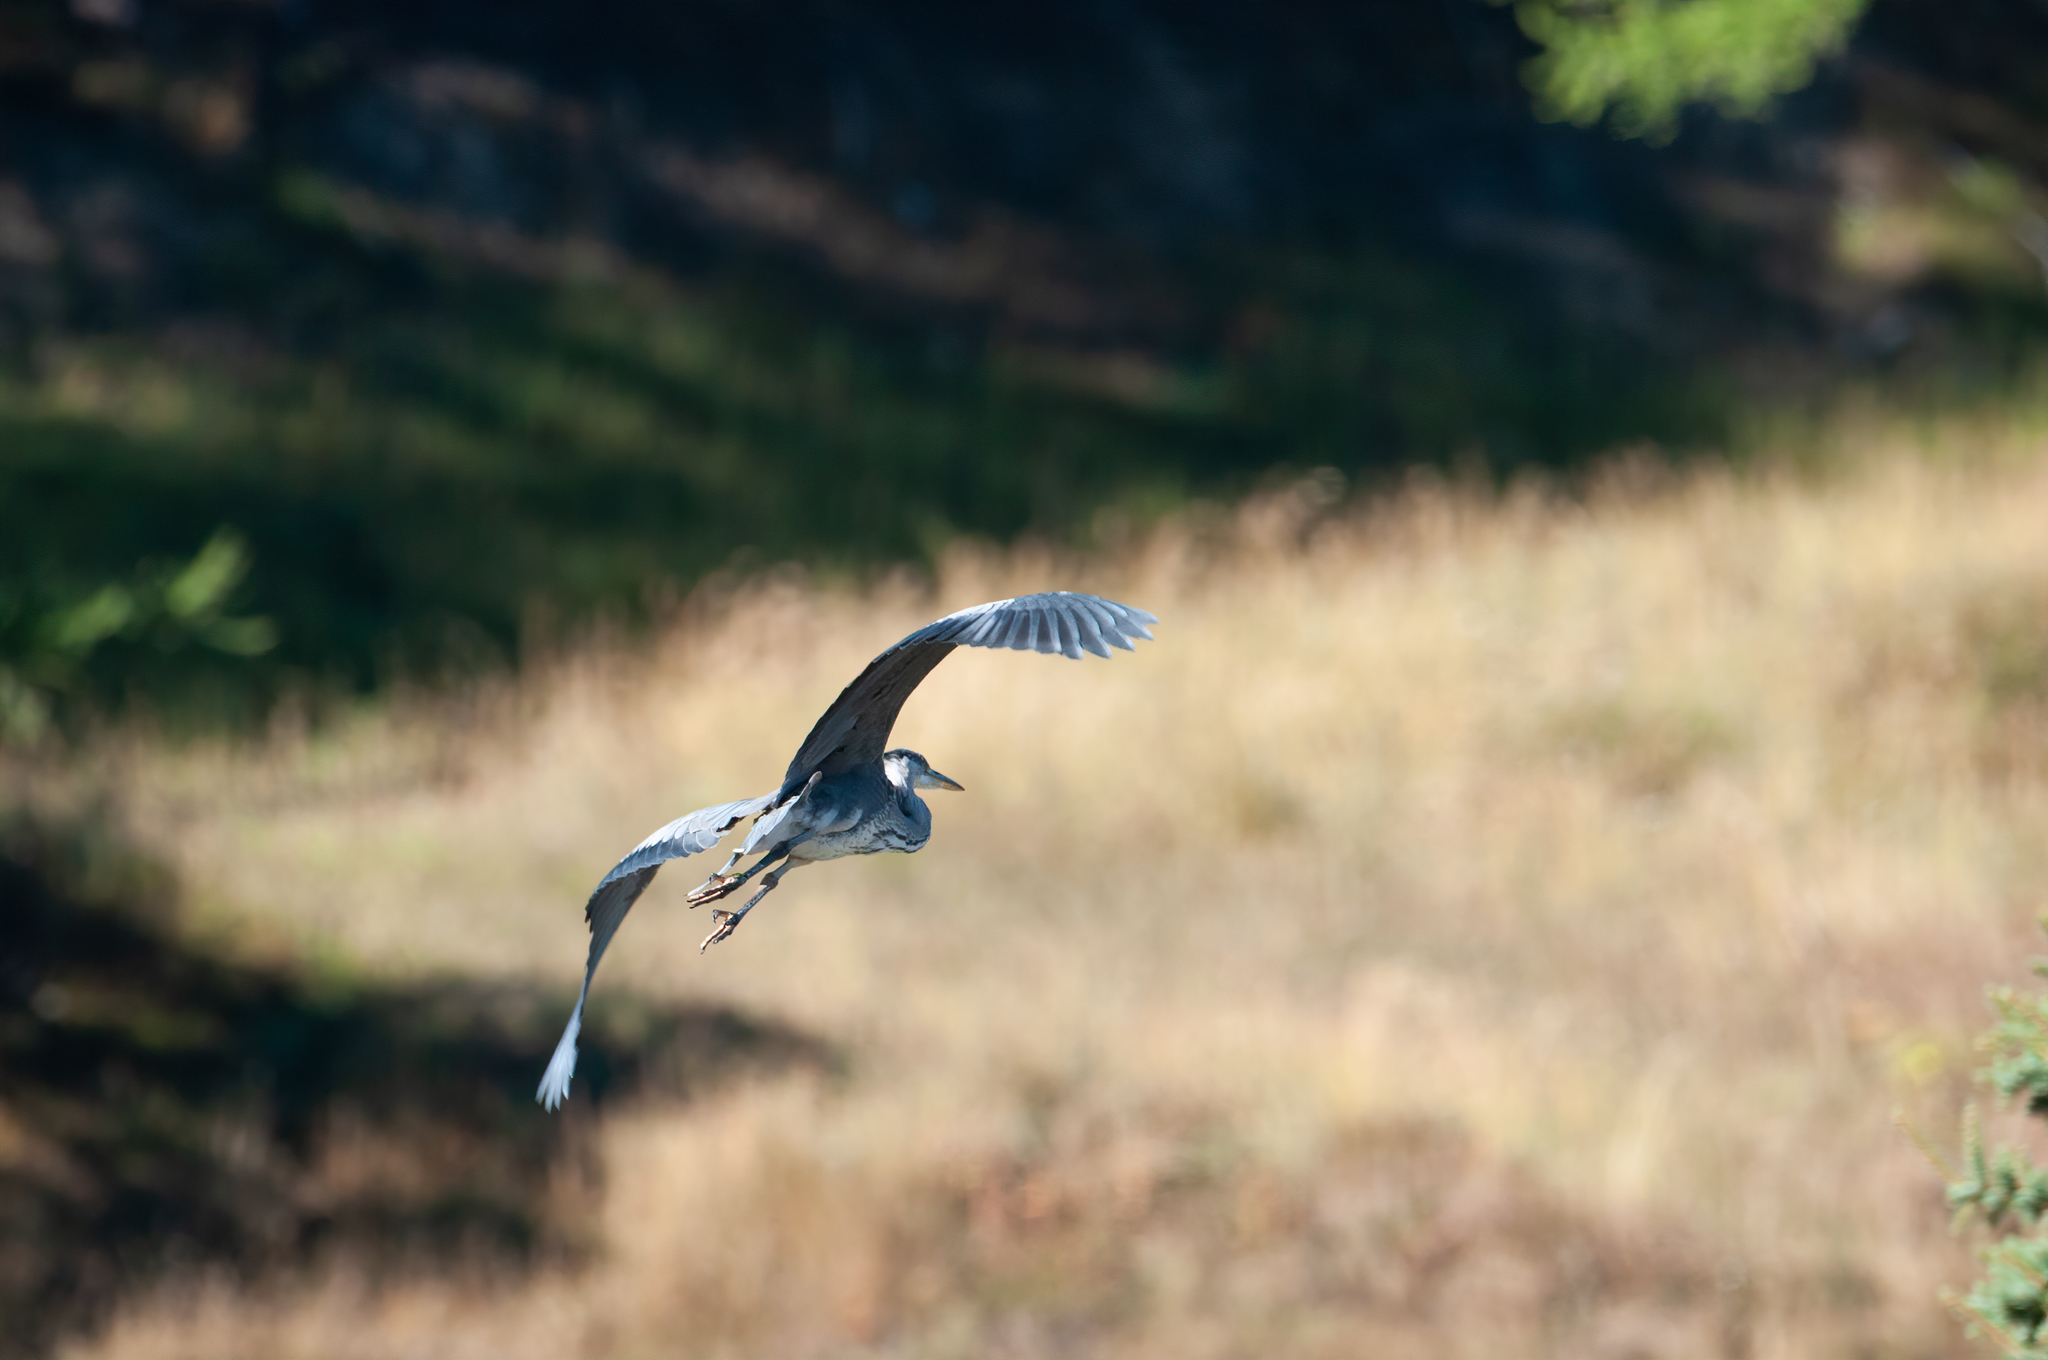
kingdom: Animalia
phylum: Chordata
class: Aves
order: Pelecaniformes
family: Ardeidae
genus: Ardea
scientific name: Ardea cinerea
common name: Grey heron
